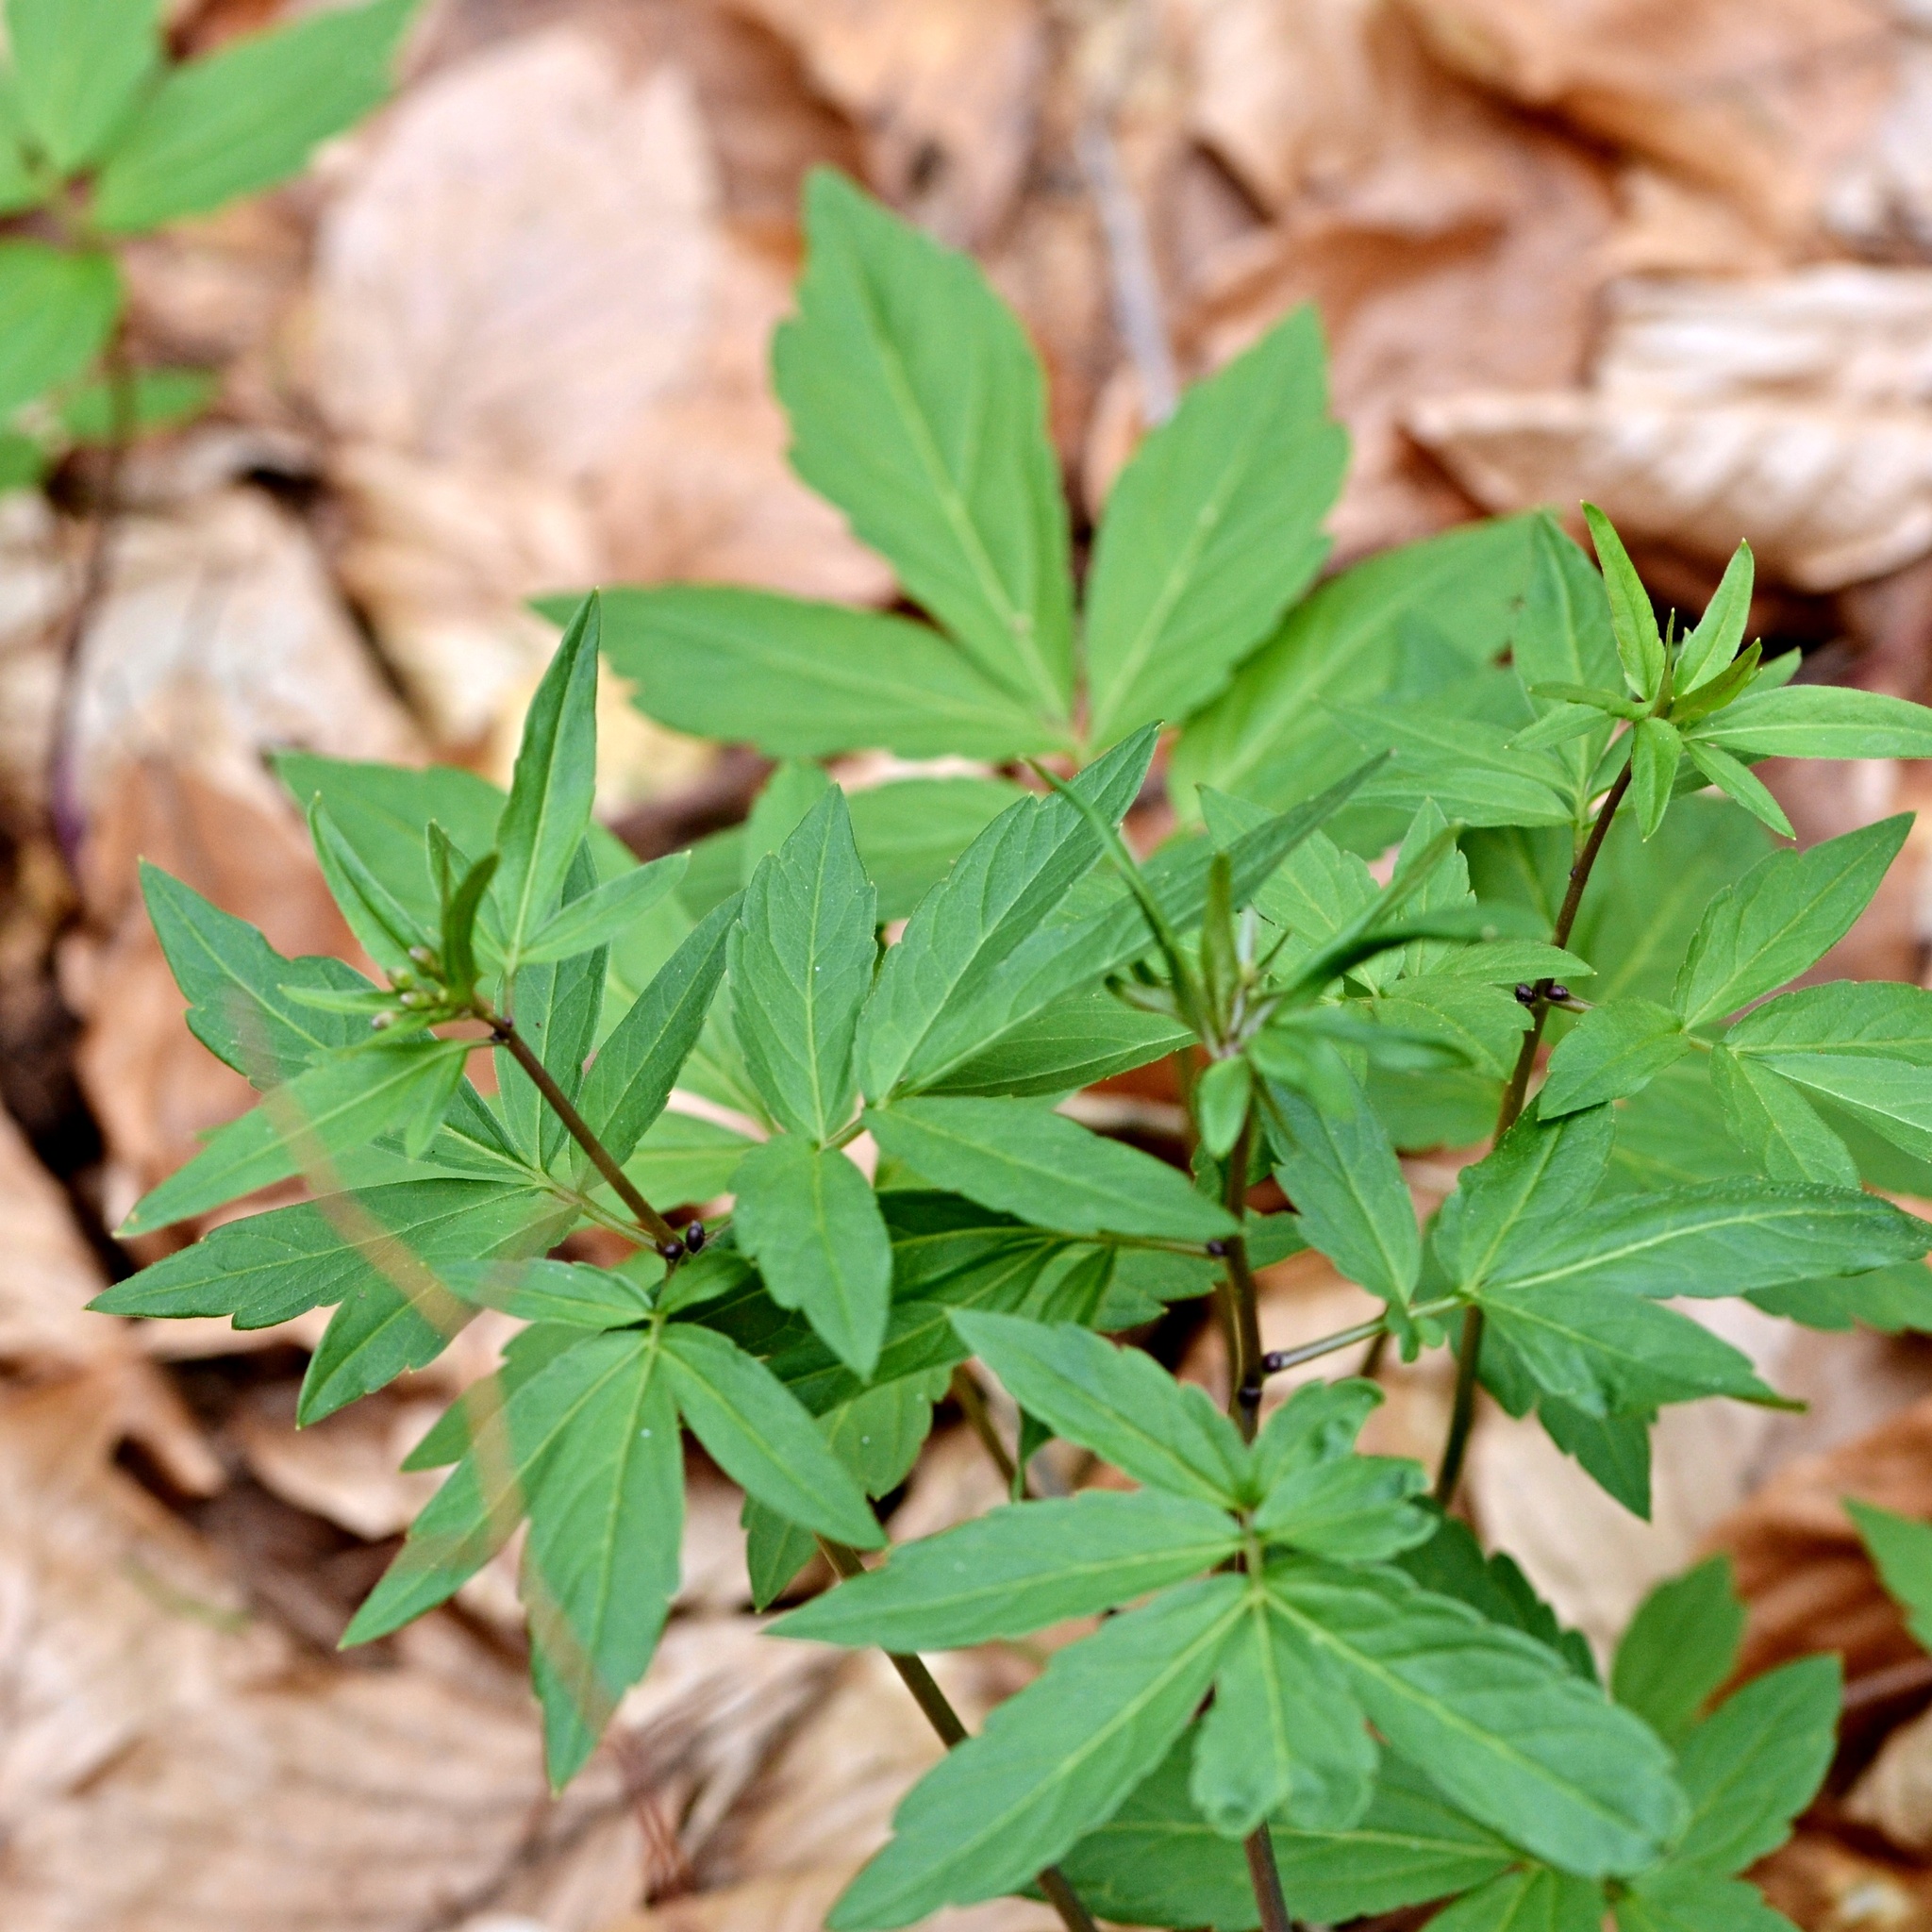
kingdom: Plantae
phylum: Tracheophyta
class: Magnoliopsida
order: Brassicales
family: Brassicaceae
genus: Cardamine
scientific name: Cardamine bulbifera
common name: Coralroot bittercress
